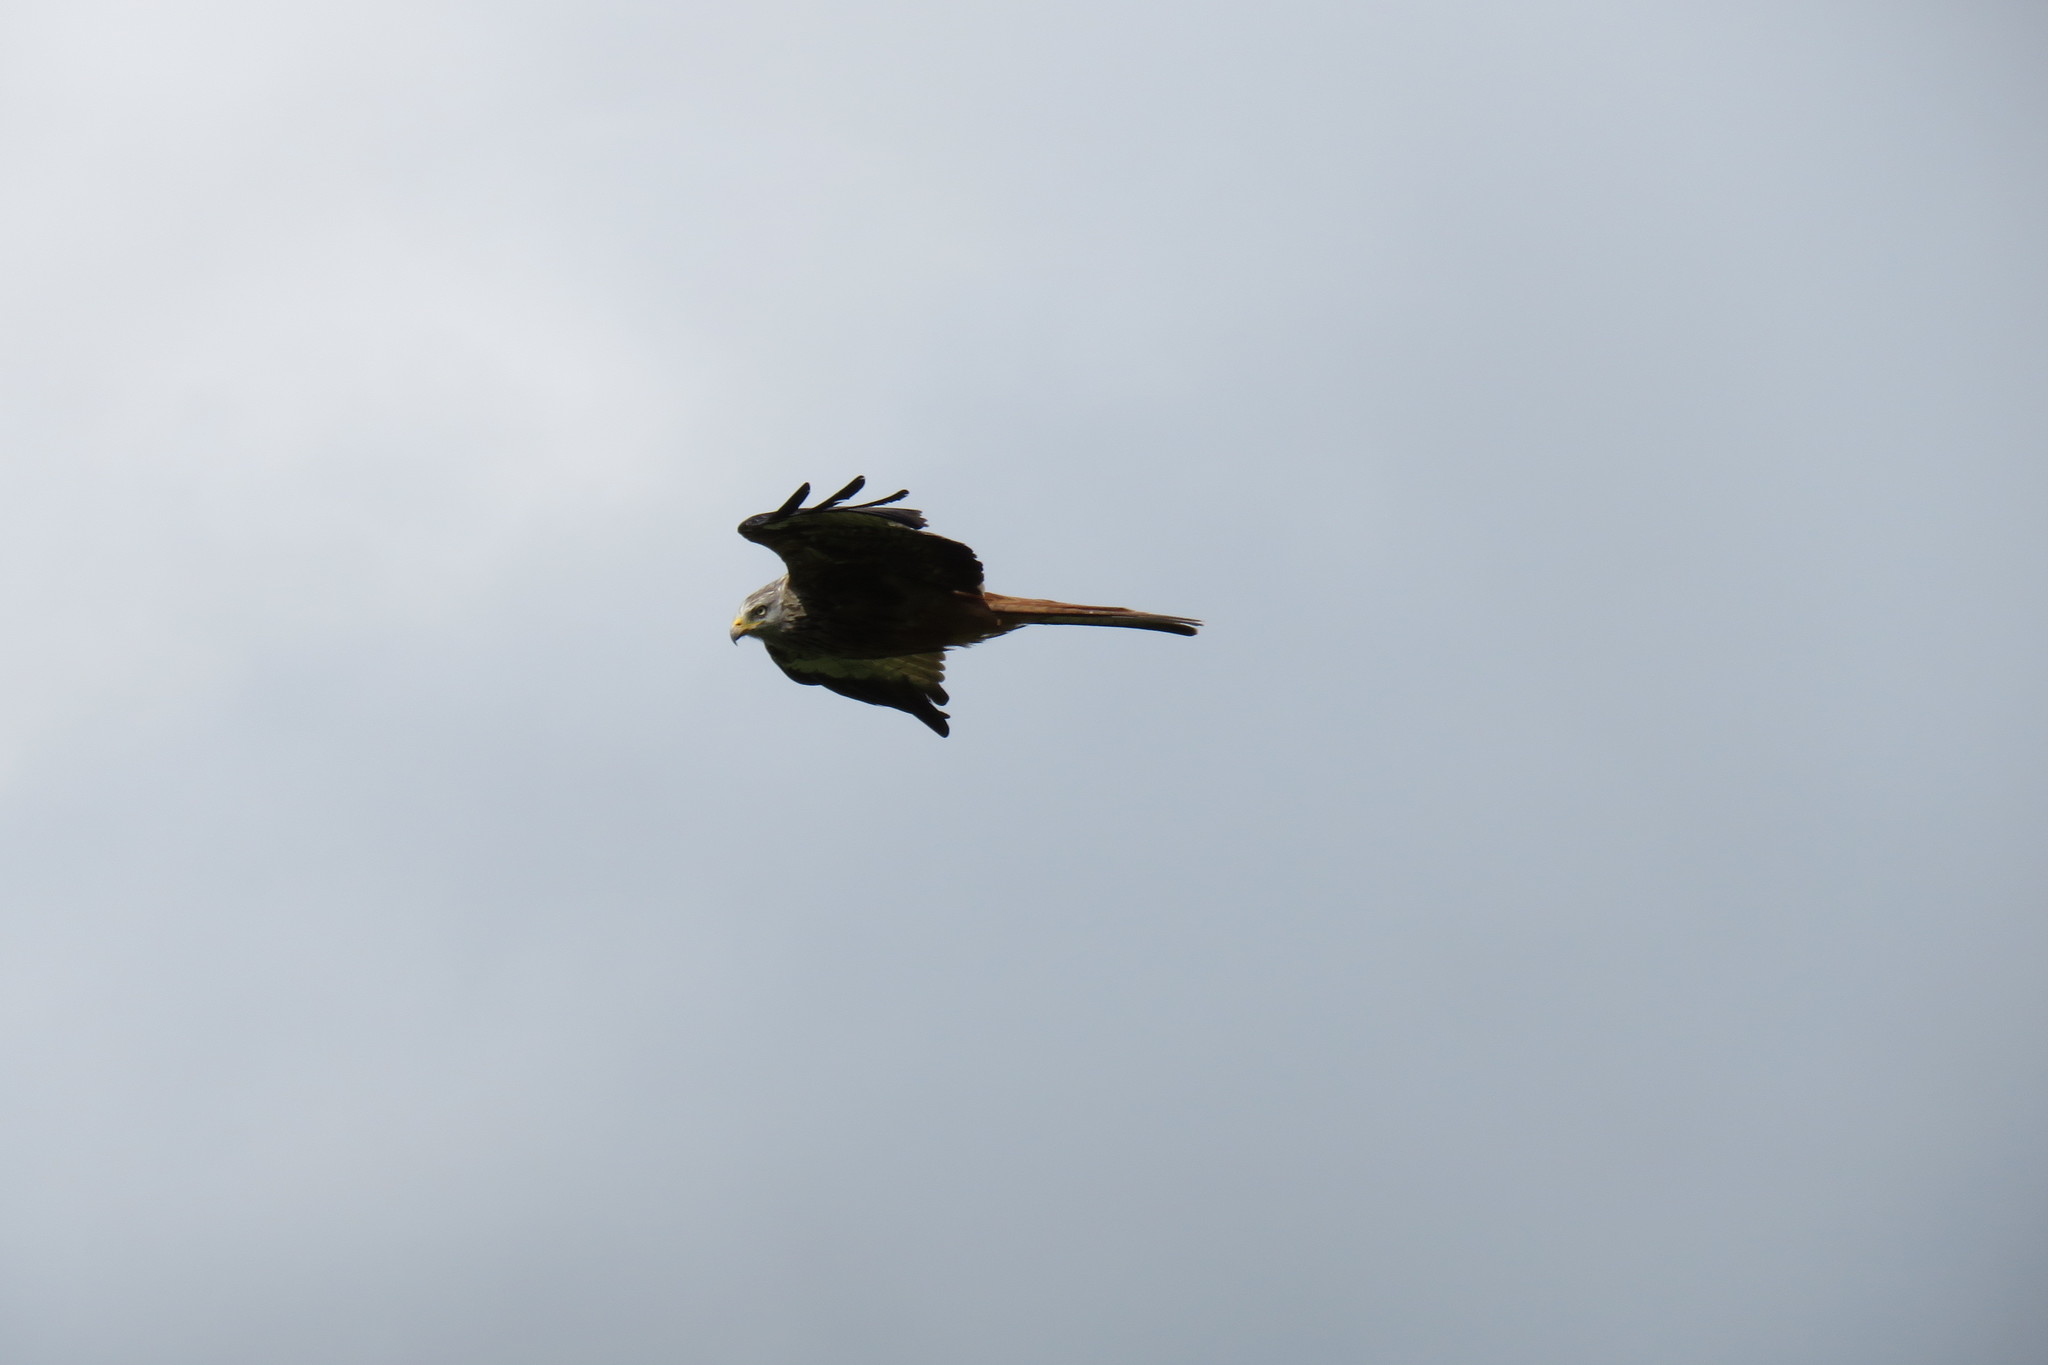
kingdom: Animalia
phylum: Chordata
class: Aves
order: Accipitriformes
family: Accipitridae
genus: Milvus
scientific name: Milvus milvus
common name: Red kite
